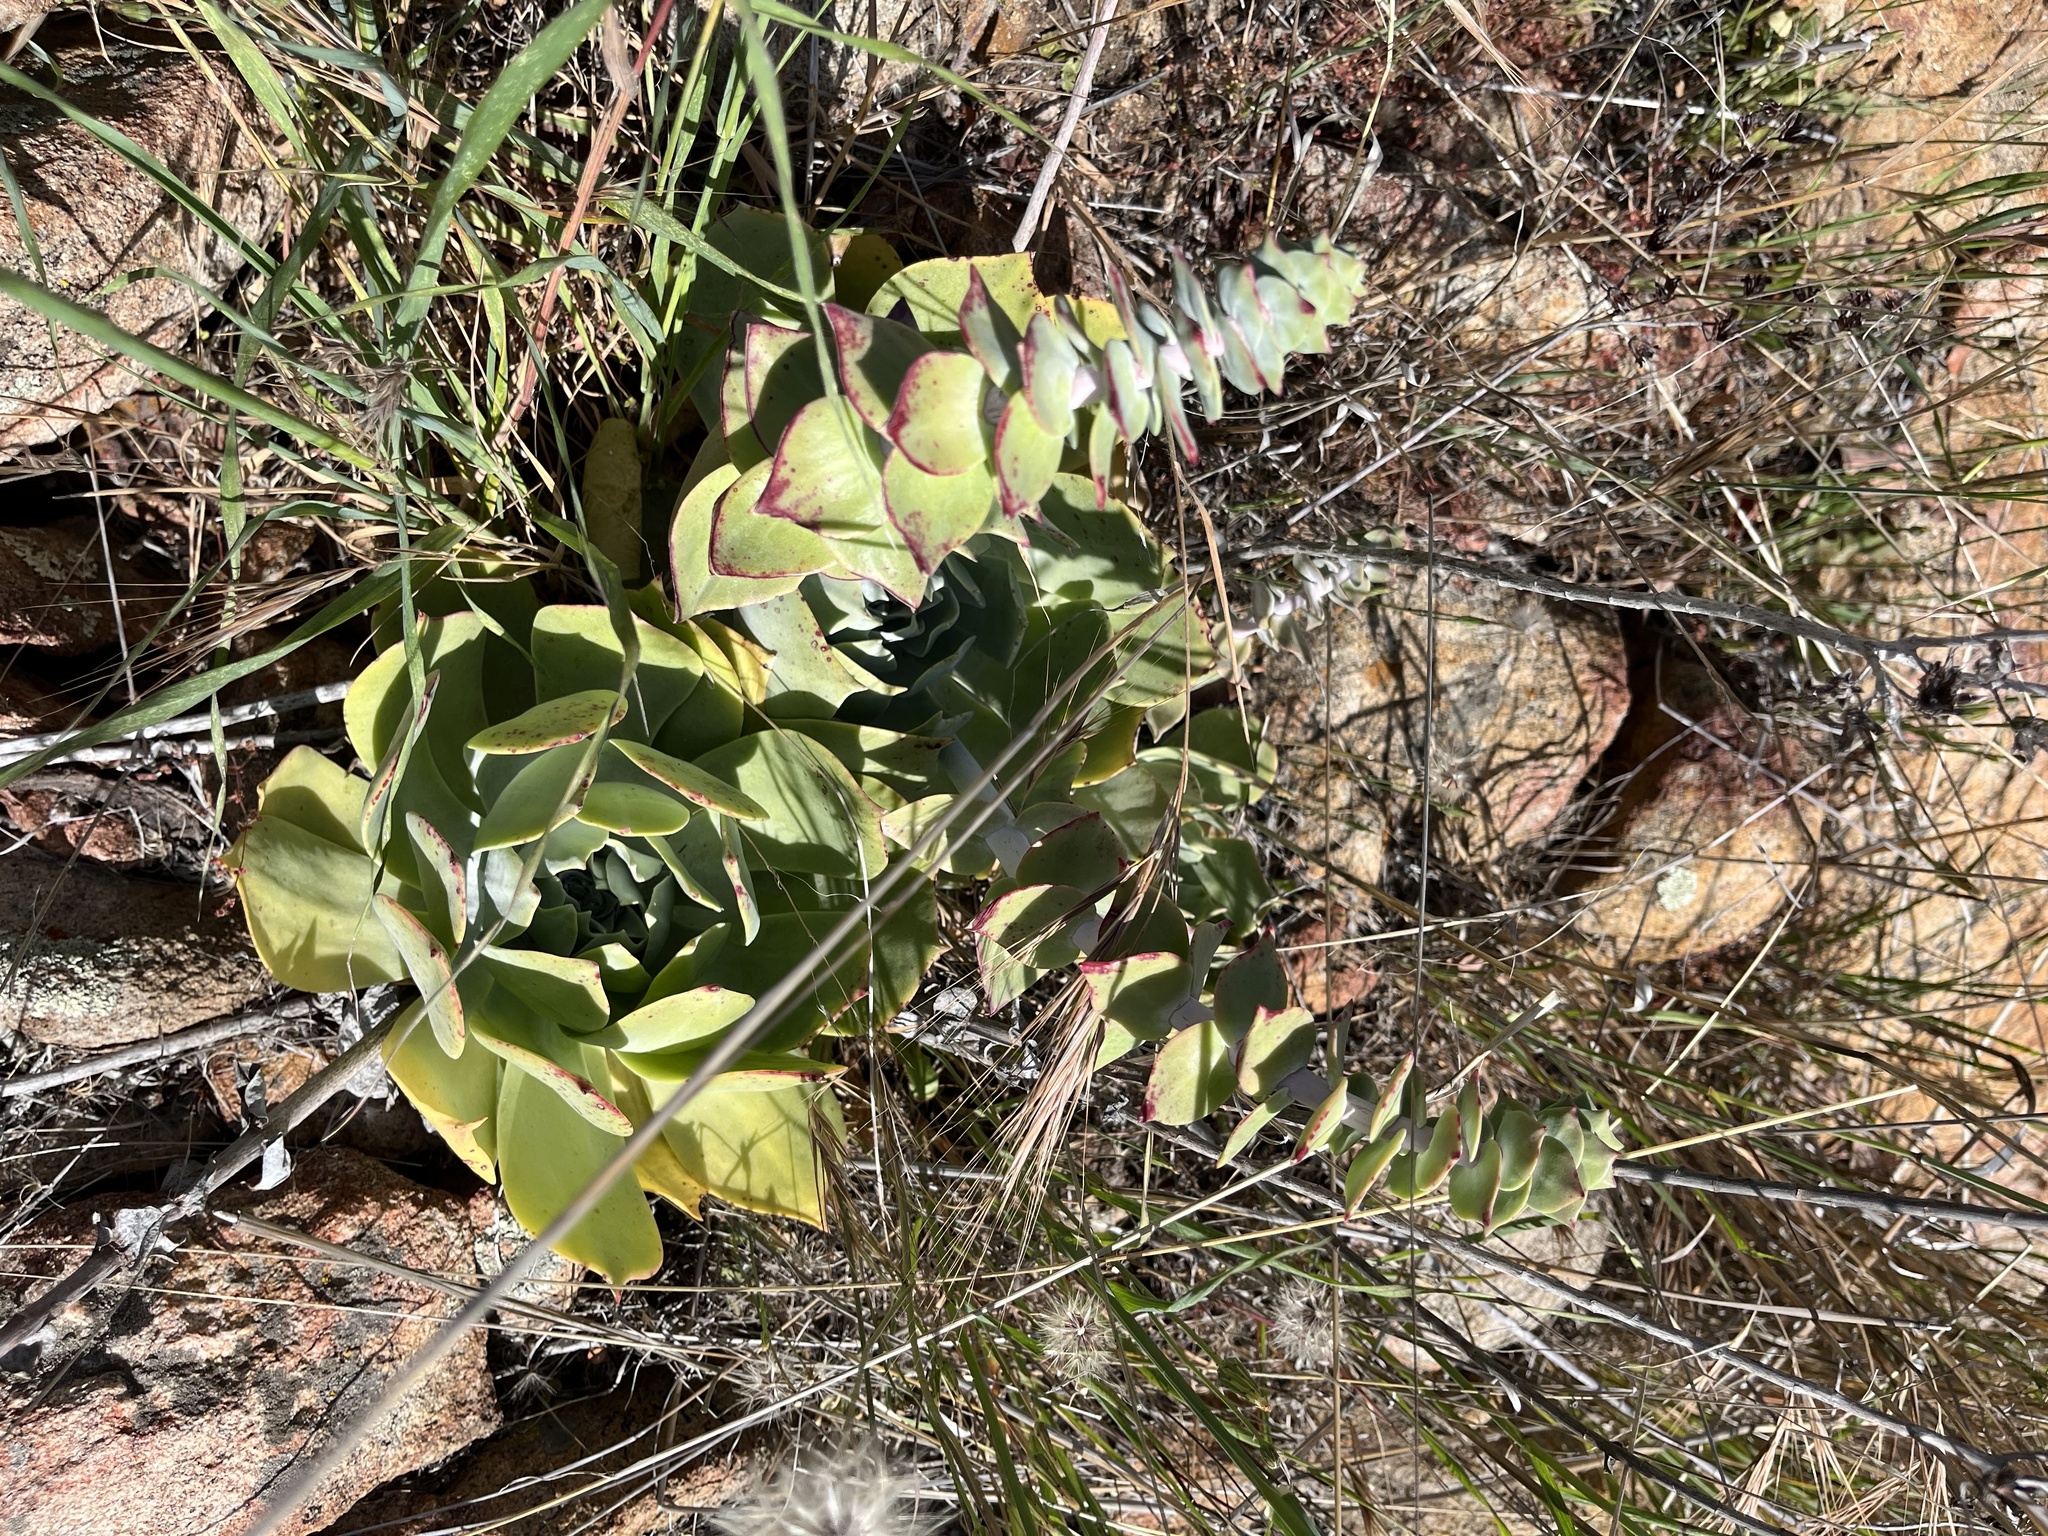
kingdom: Plantae
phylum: Tracheophyta
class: Magnoliopsida
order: Saxifragales
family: Crassulaceae
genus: Dudleya
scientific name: Dudleya pulverulenta
